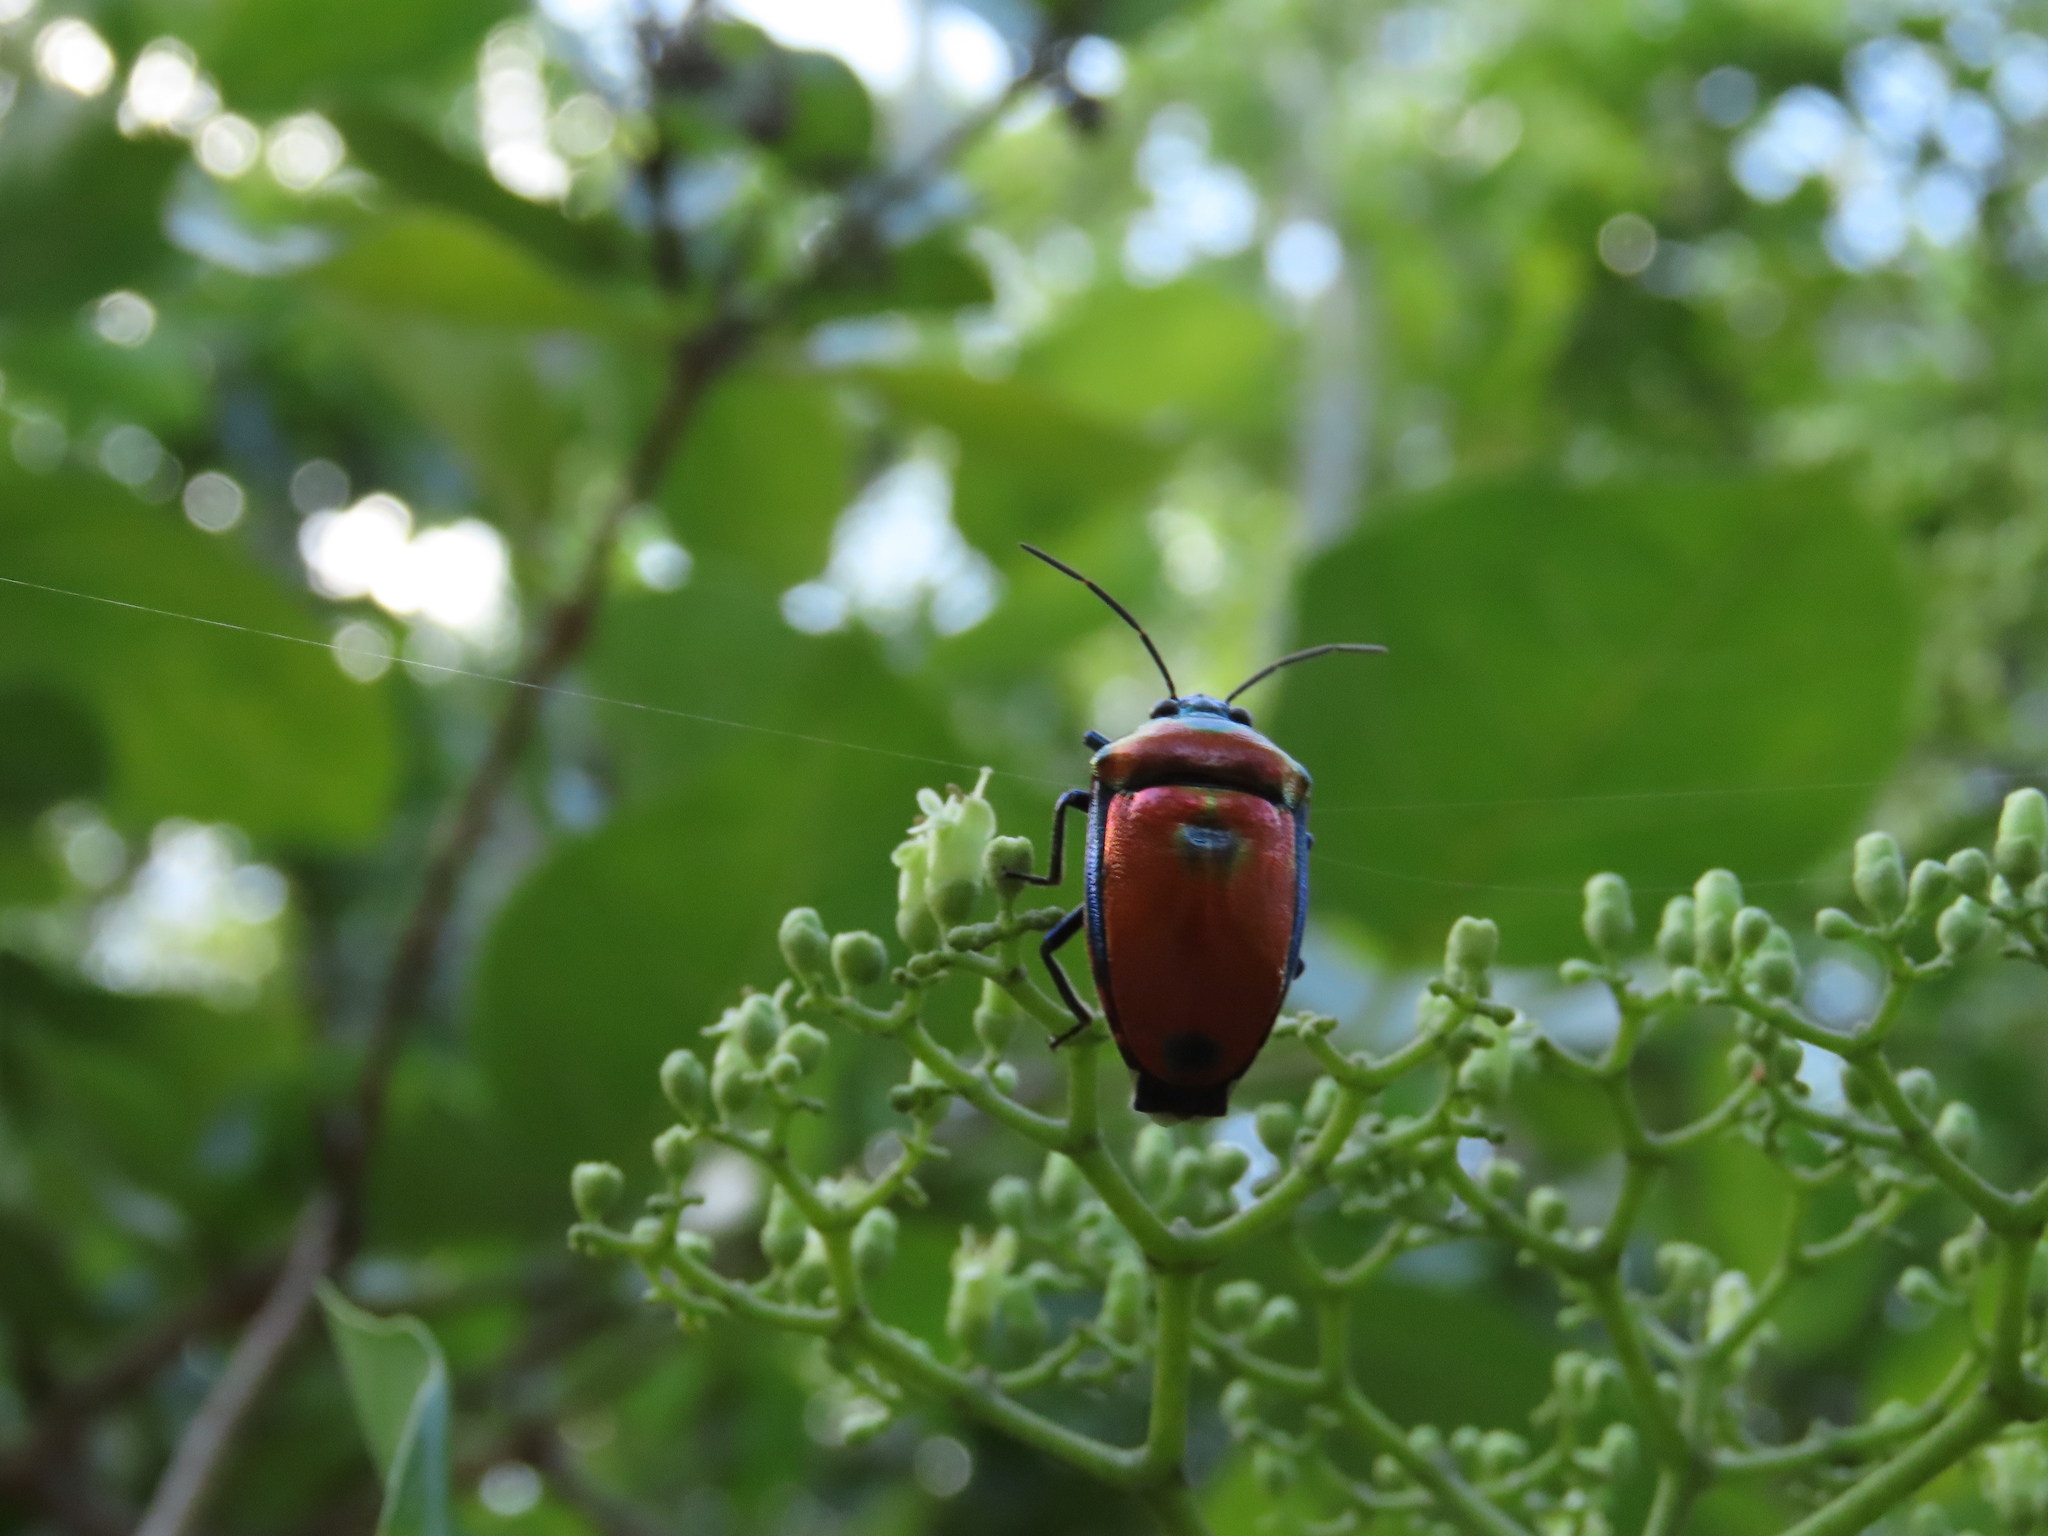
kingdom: Animalia
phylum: Arthropoda
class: Insecta
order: Hemiptera
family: Scutelleridae
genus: Calliphara
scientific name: Calliphara regalis
